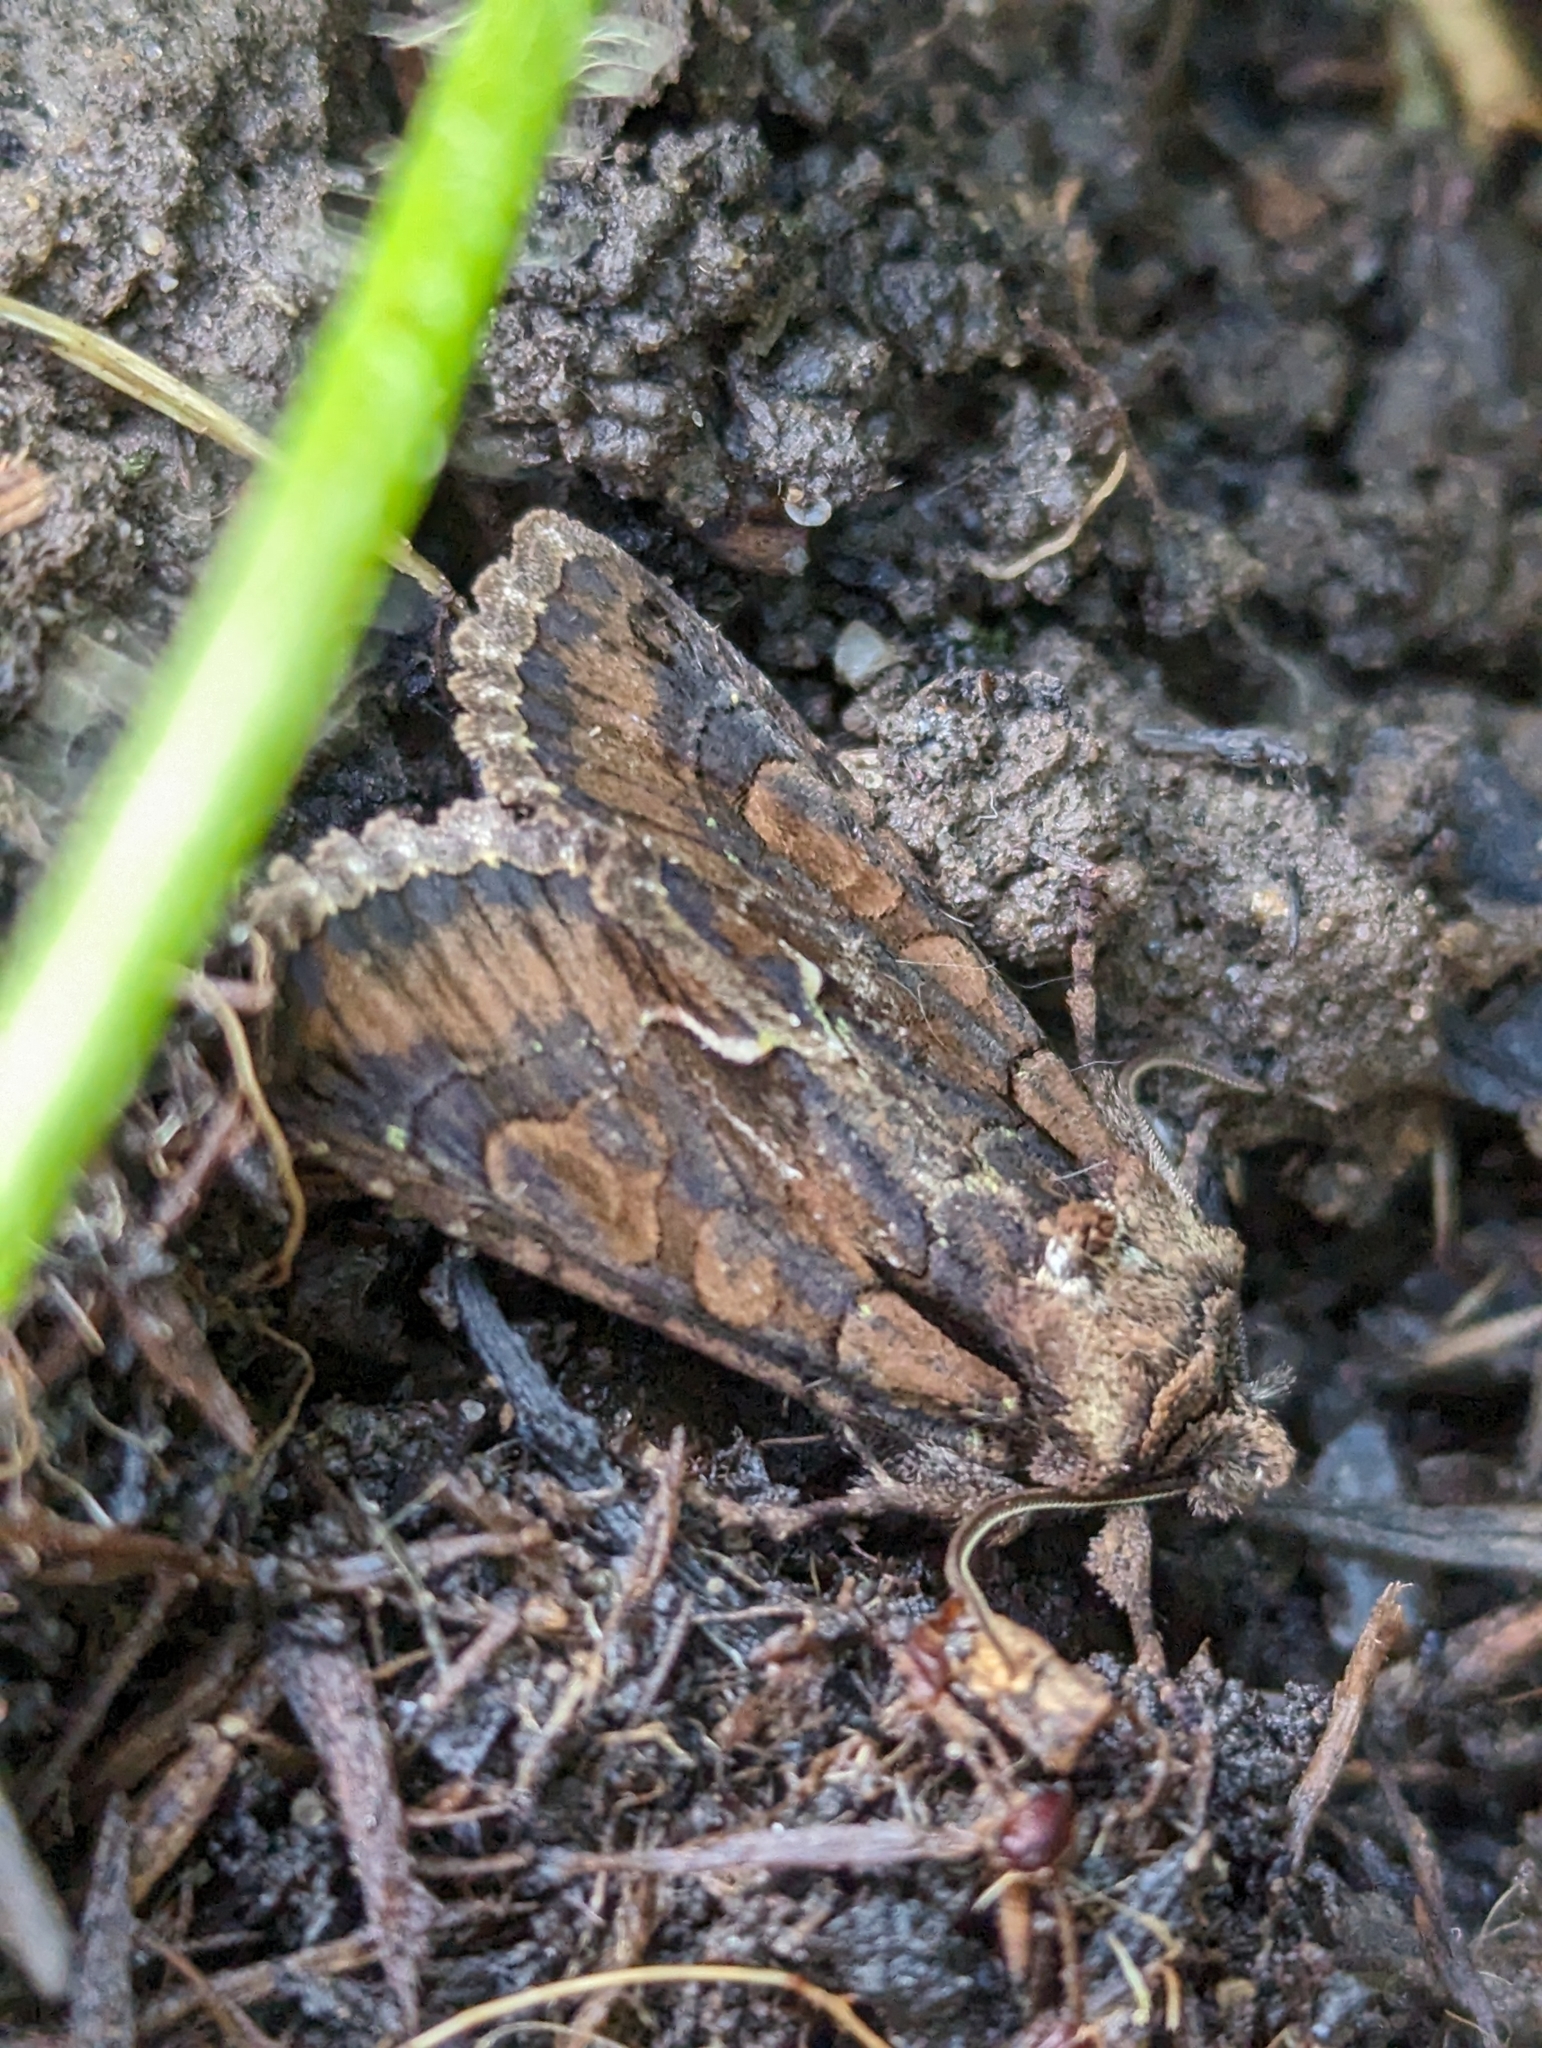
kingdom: Animalia
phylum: Arthropoda
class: Insecta
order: Lepidoptera
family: Noctuidae
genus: Allophyes
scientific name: Allophyes oxyacanthae
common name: Green-brindled crescent
